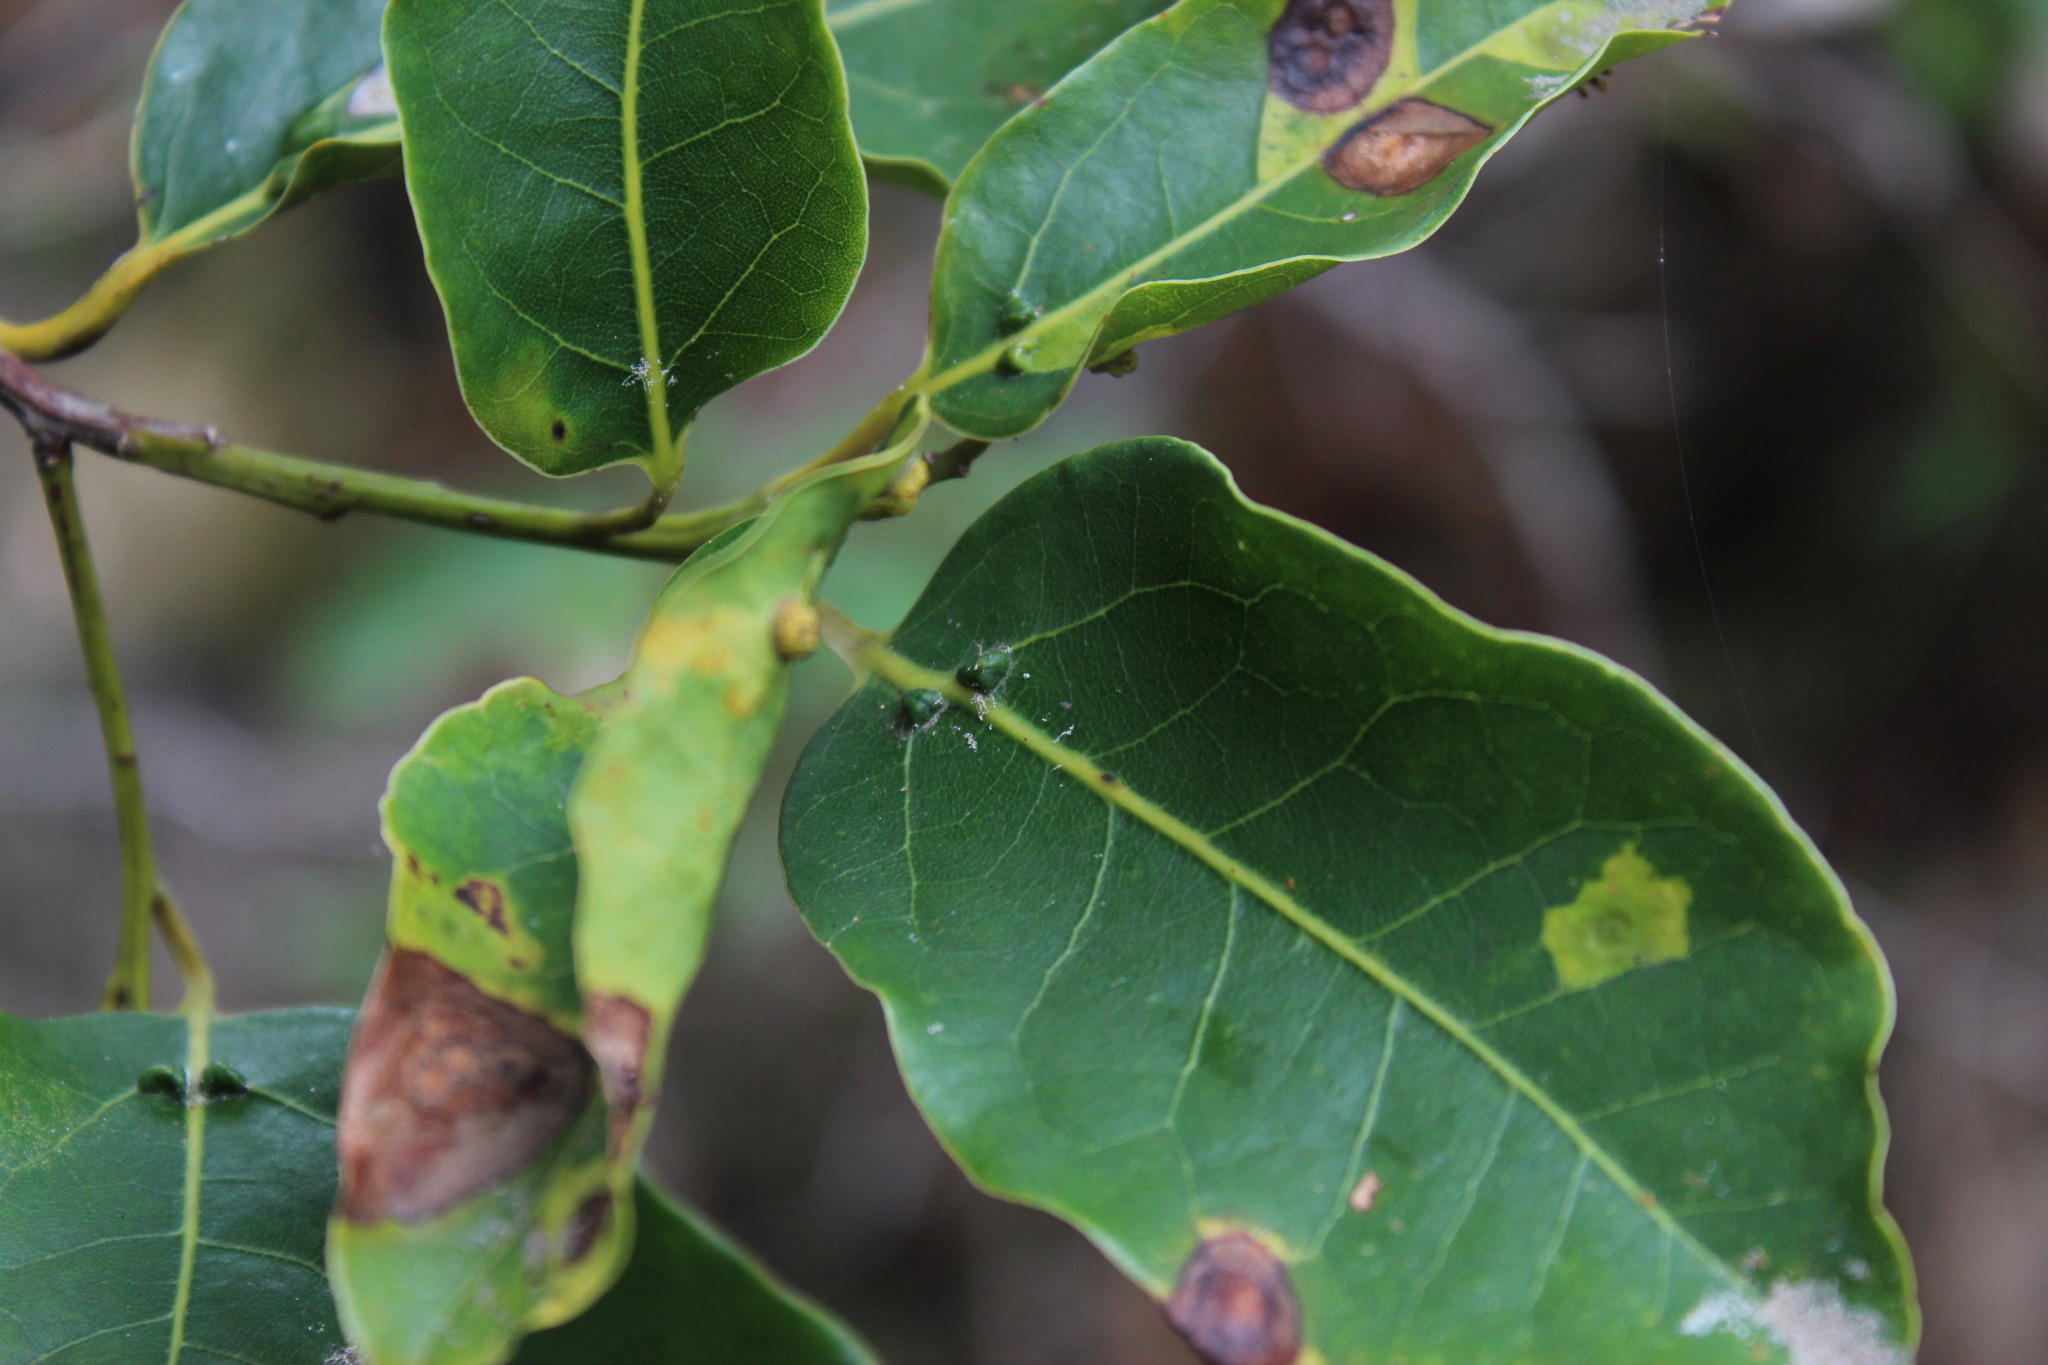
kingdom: Plantae
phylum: Tracheophyta
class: Magnoliopsida
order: Laurales
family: Lauraceae
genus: Ocotea
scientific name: Ocotea bullata
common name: Black stinkwood
